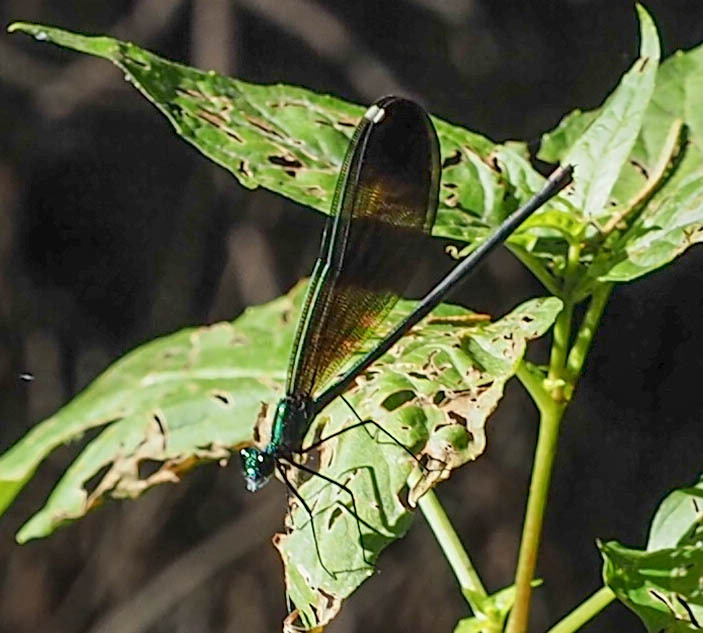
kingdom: Animalia
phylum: Arthropoda
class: Insecta
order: Odonata
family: Calopterygidae
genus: Calopteryx
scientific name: Calopteryx maculata
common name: Ebony jewelwing
